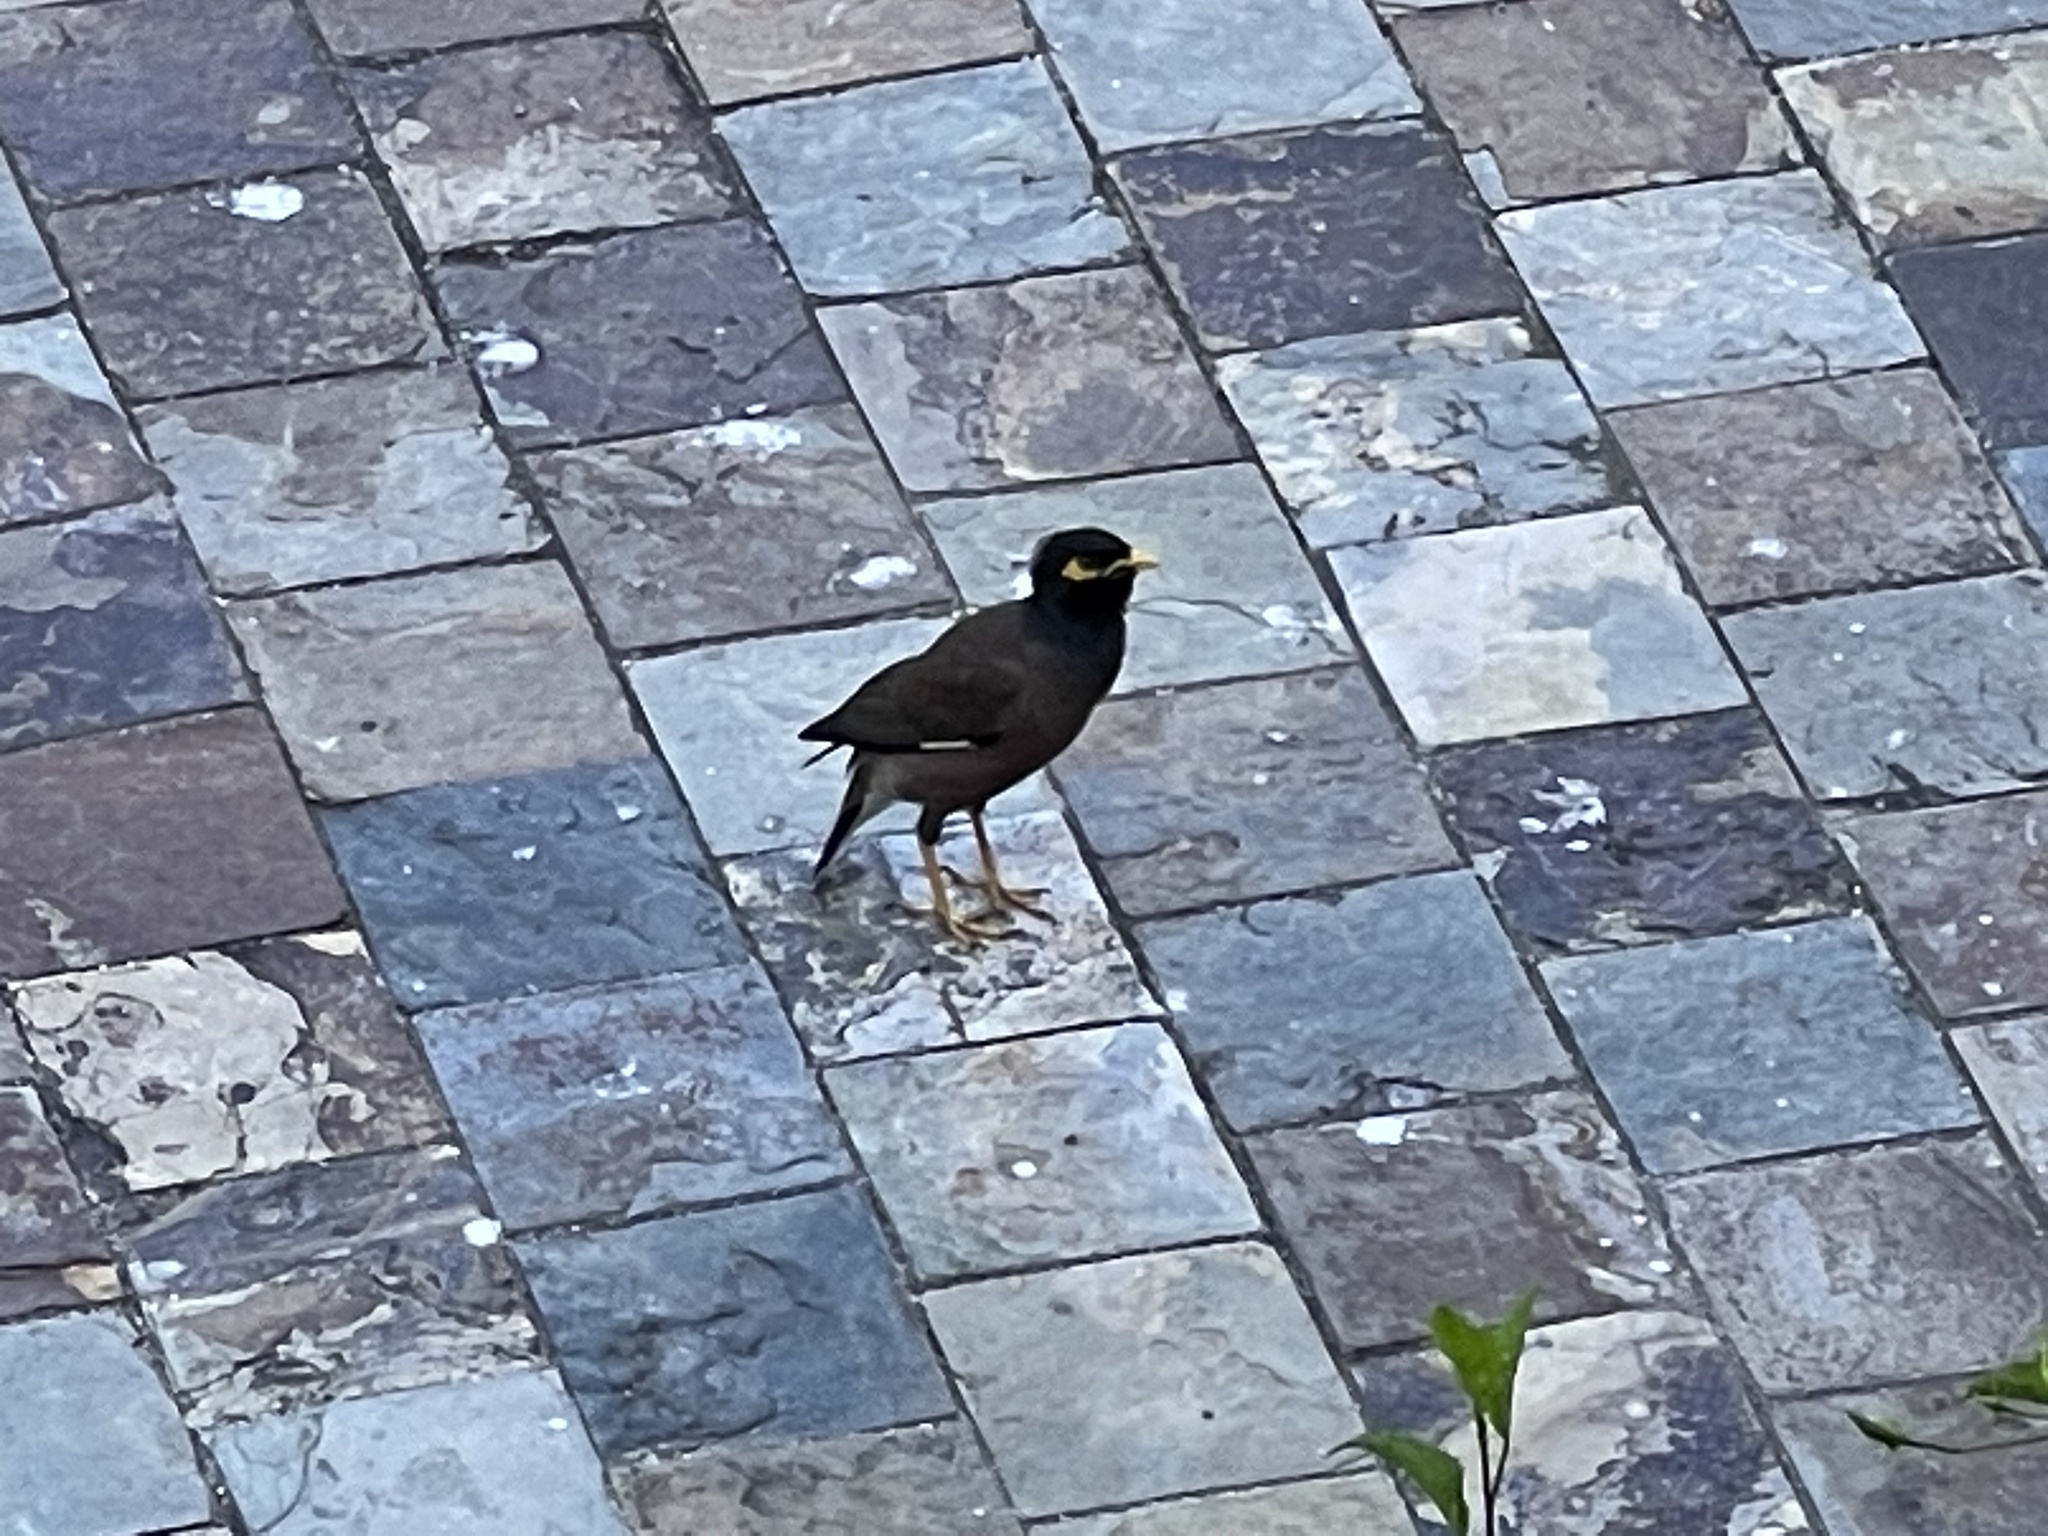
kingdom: Animalia
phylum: Chordata
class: Aves
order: Passeriformes
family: Sturnidae
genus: Acridotheres
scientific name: Acridotheres tristis
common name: Common myna
